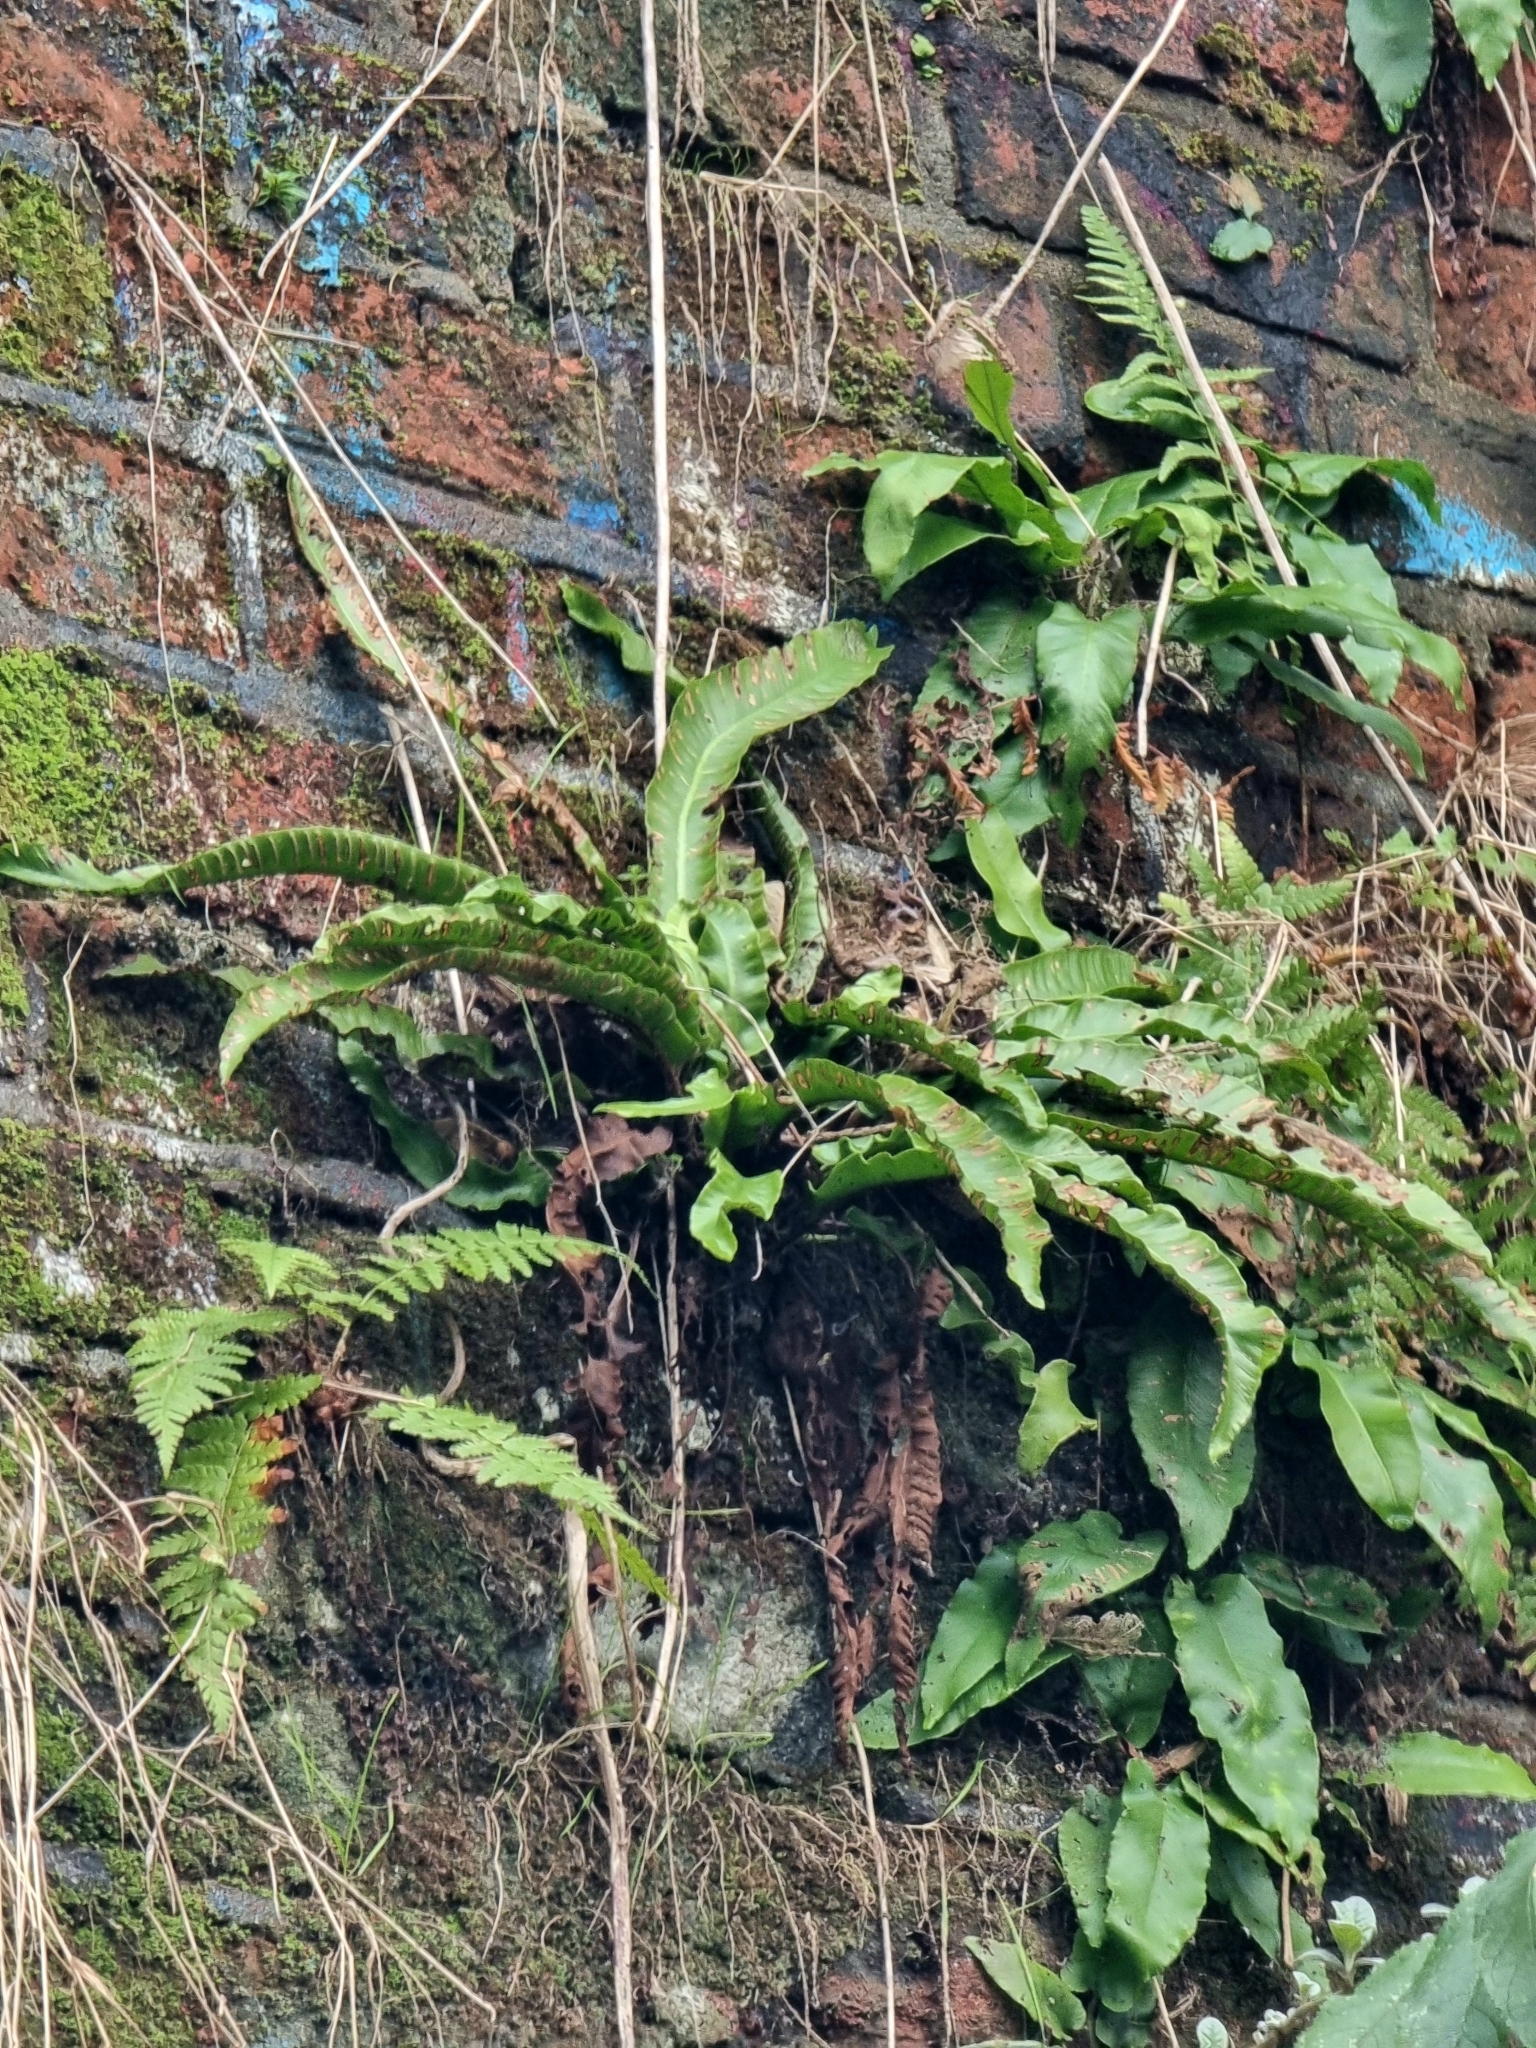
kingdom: Plantae
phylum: Tracheophyta
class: Polypodiopsida
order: Polypodiales
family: Aspleniaceae
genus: Asplenium
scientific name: Asplenium scolopendrium
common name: Hart's-tongue fern
